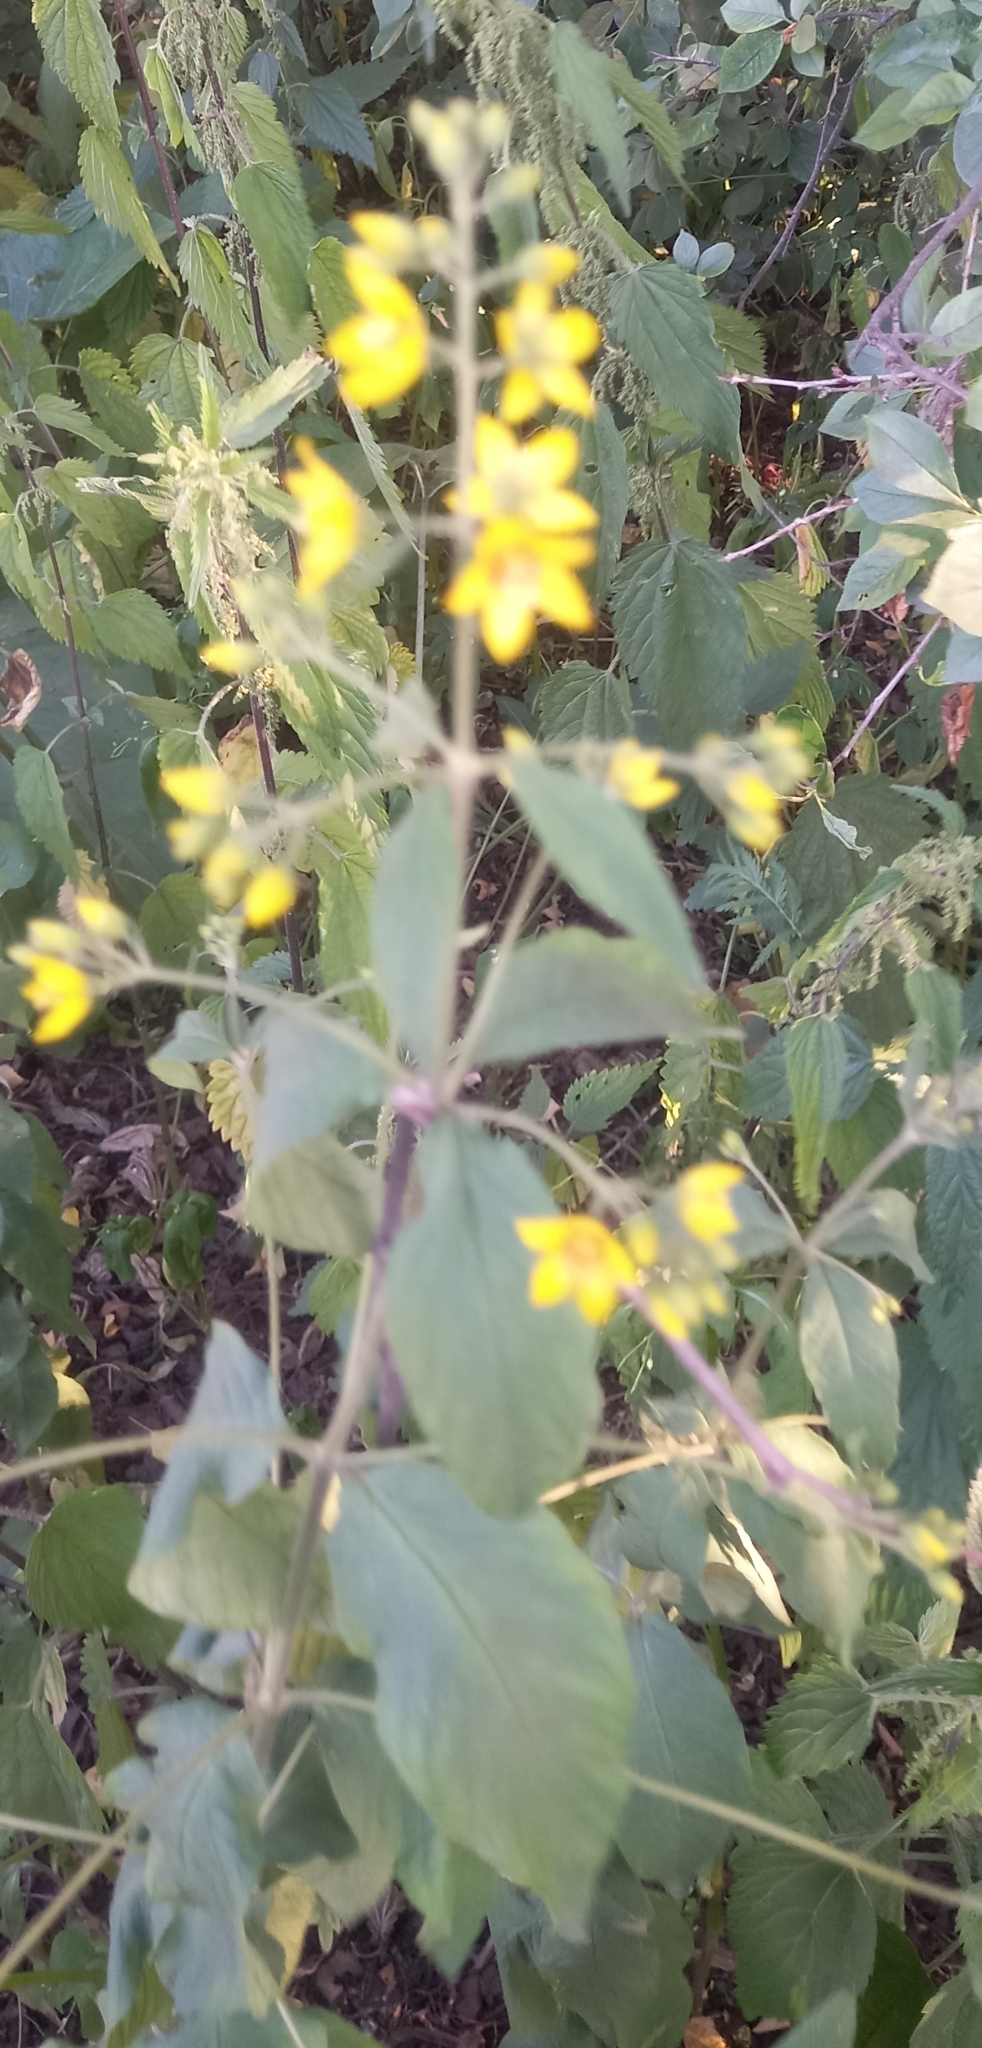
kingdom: Plantae
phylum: Tracheophyta
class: Magnoliopsida
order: Ericales
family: Primulaceae
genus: Lysimachia
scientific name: Lysimachia vulgaris
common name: Yellow loosestrife
